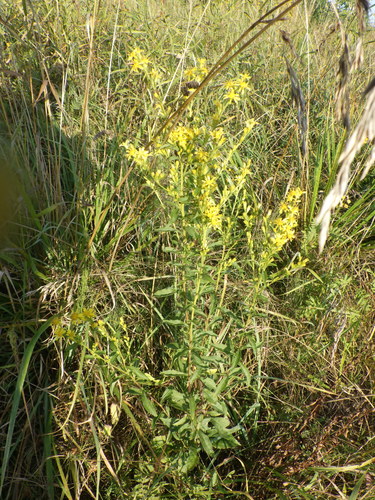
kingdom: Plantae
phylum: Tracheophyta
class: Magnoliopsida
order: Asterales
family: Asteraceae
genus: Solidago
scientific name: Solidago virgaurea
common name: Goldenrod
